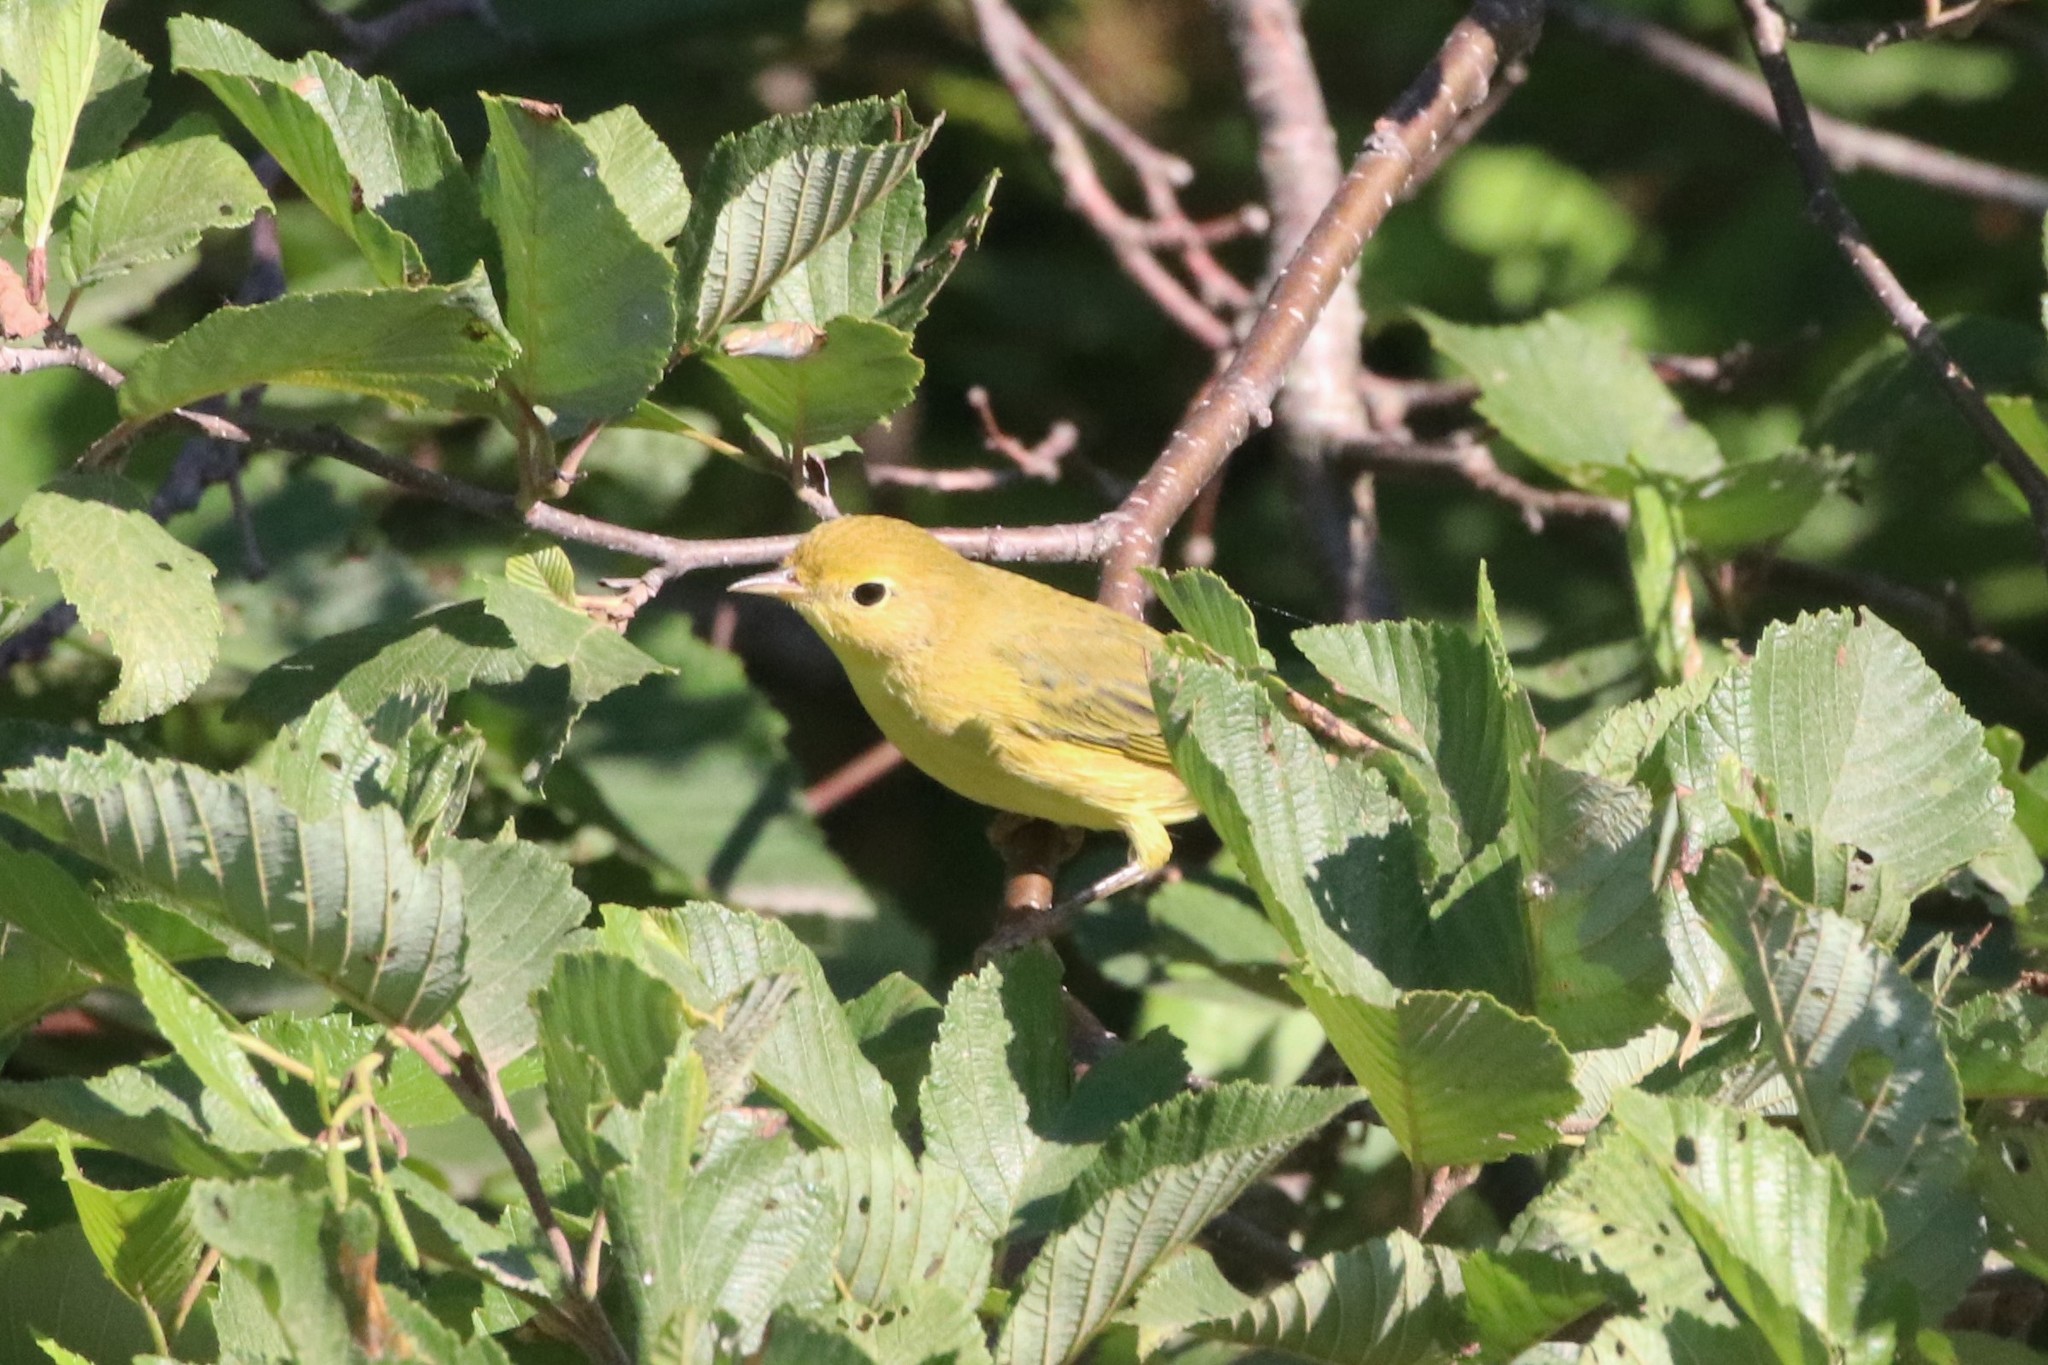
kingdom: Animalia
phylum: Chordata
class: Aves
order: Passeriformes
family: Parulidae
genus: Setophaga
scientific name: Setophaga petechia
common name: Yellow warbler
